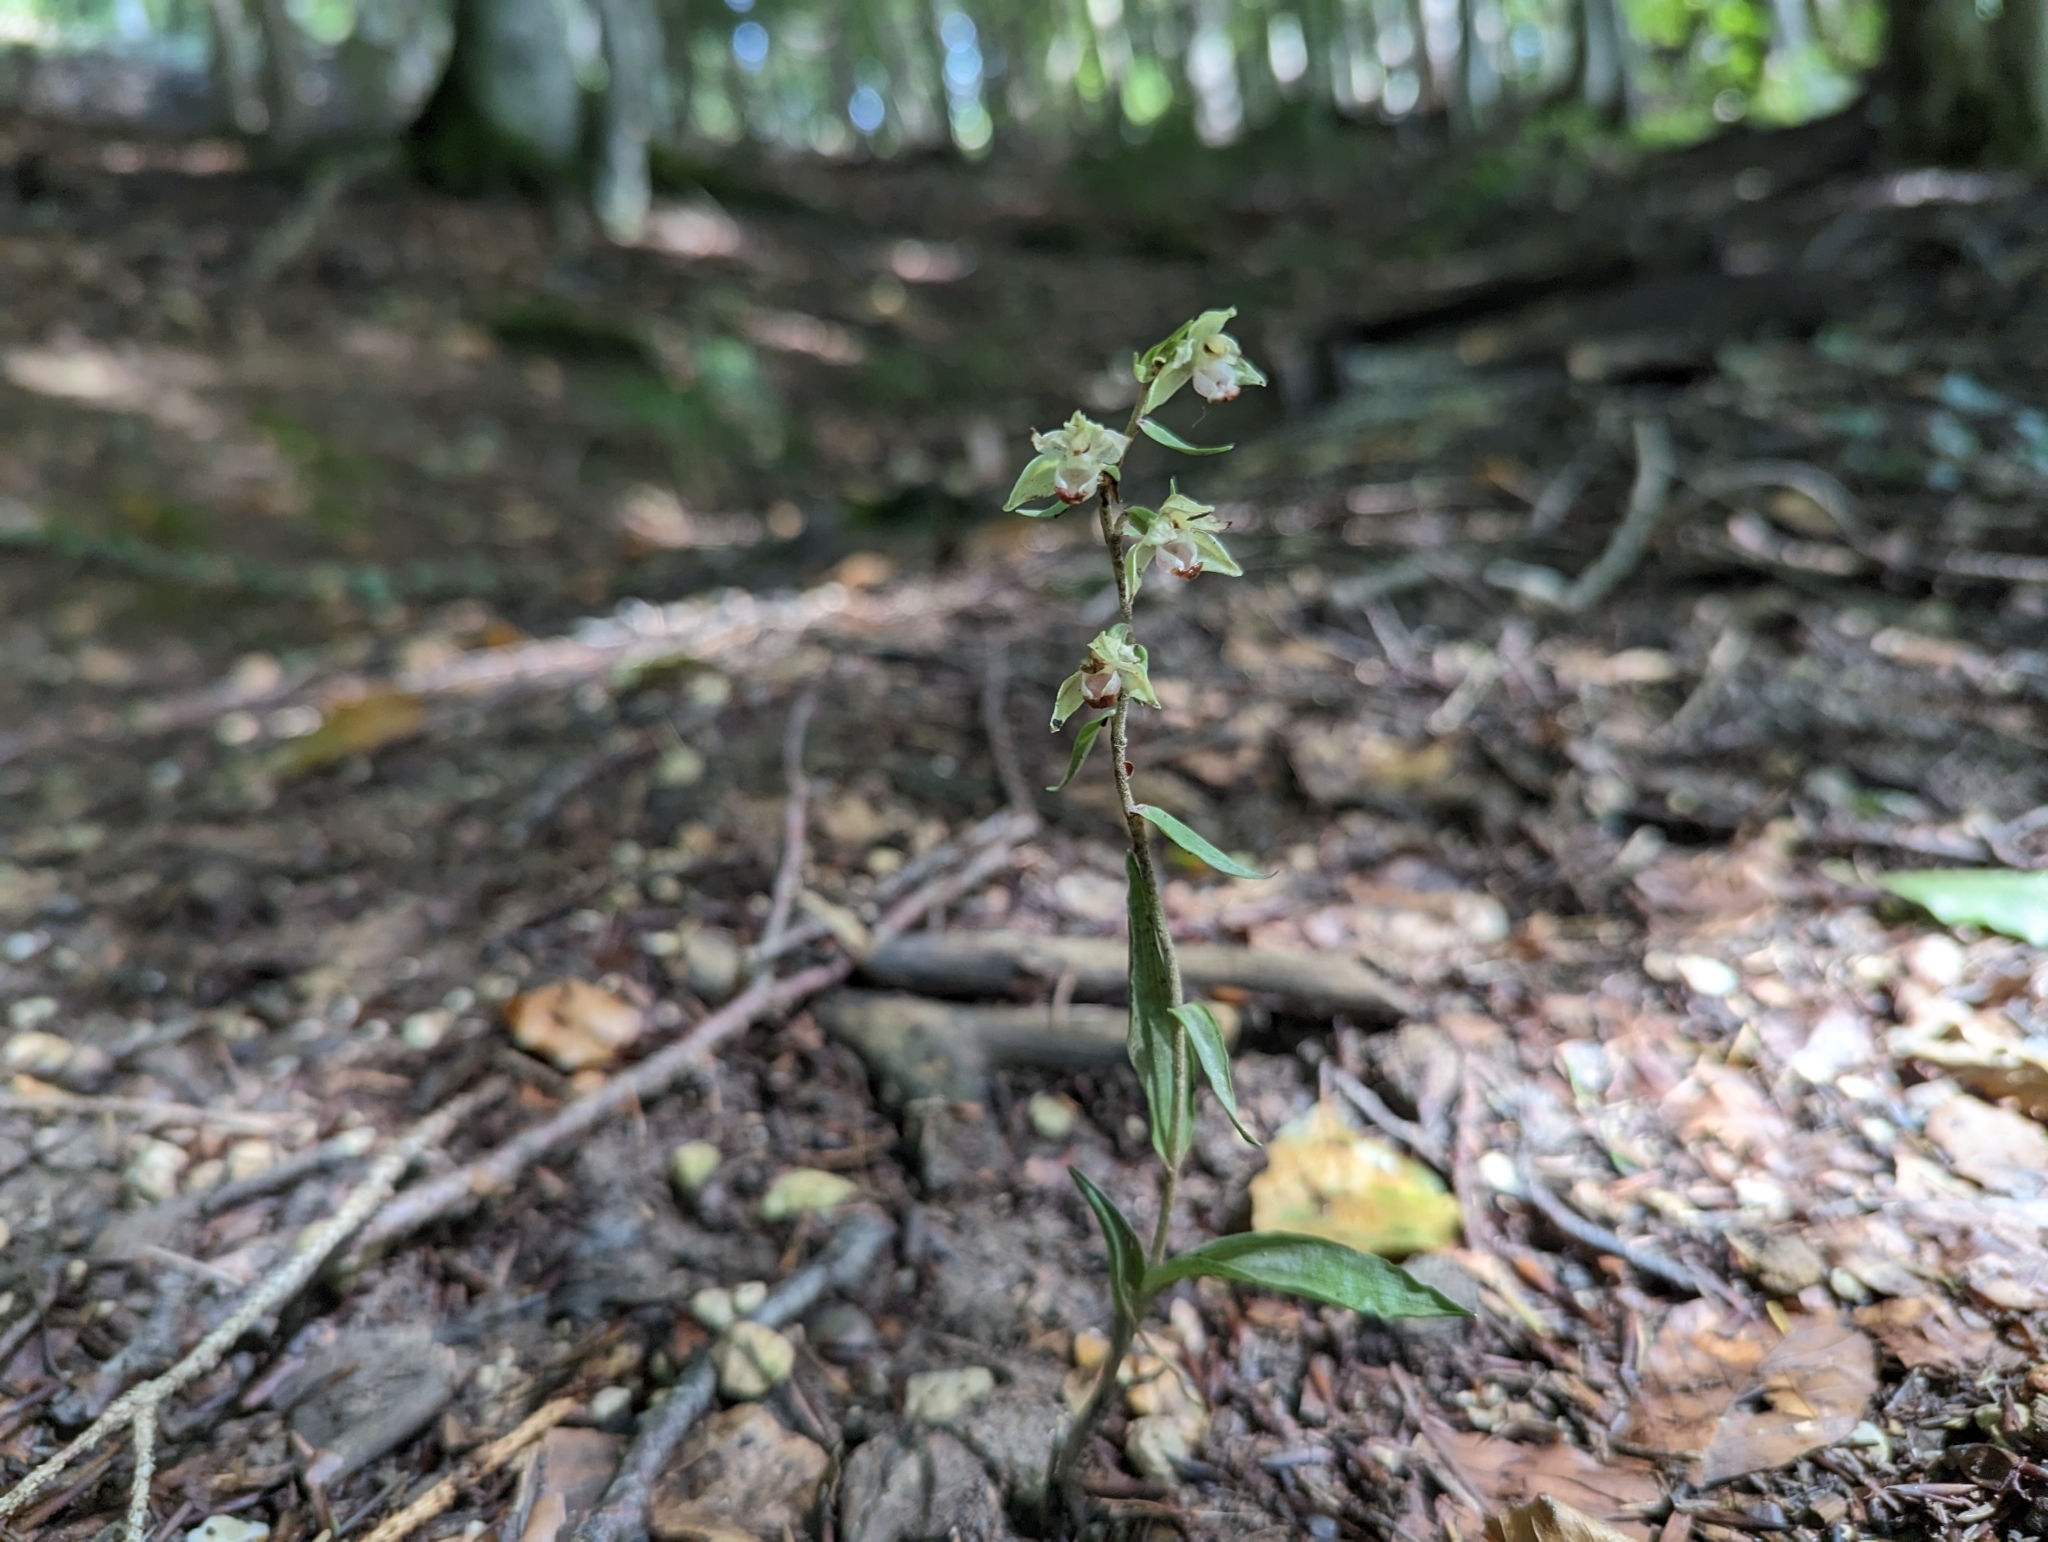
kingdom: Plantae
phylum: Tracheophyta
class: Liliopsida
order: Asparagales
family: Orchidaceae
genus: Epipactis
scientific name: Epipactis purpurata
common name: Violet helleborine
